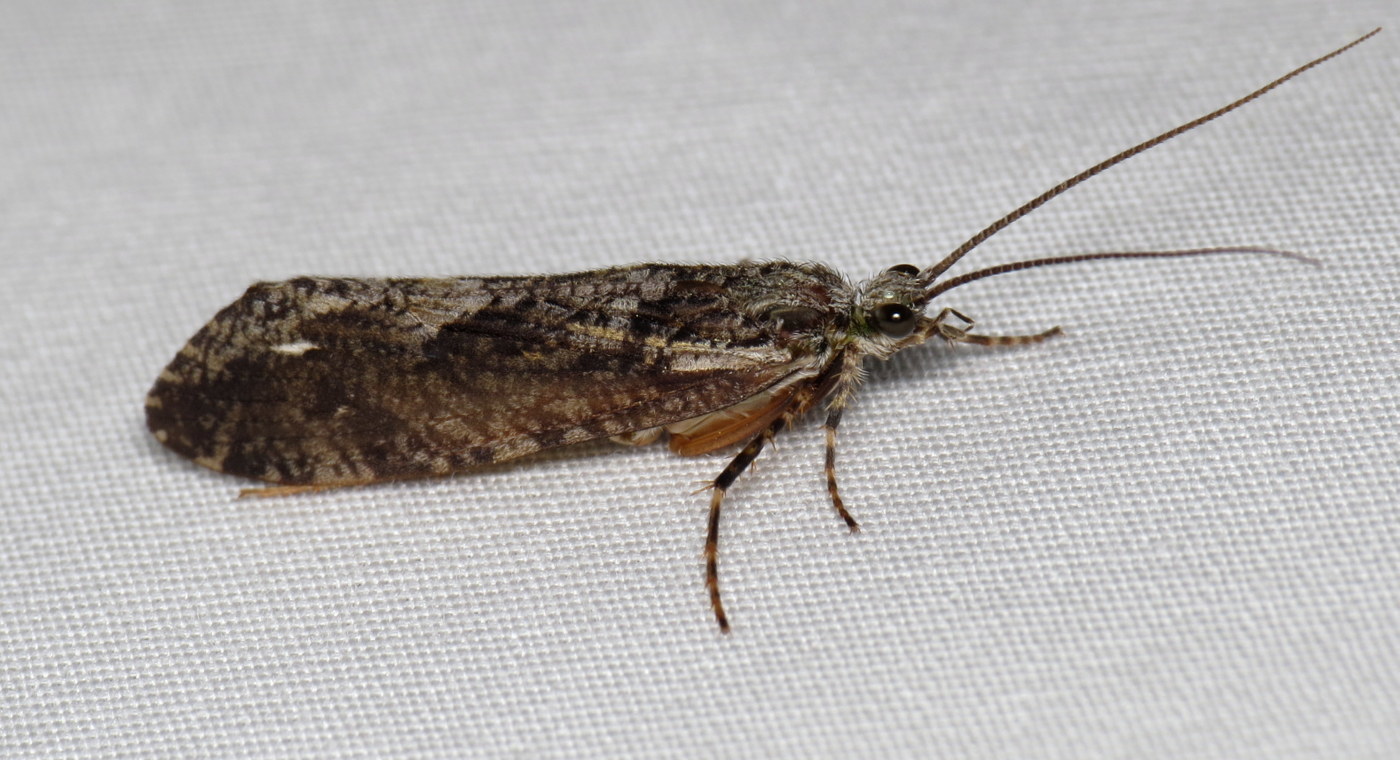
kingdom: Animalia
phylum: Arthropoda
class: Insecta
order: Trichoptera
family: Phryganeidae
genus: Agrypnia
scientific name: Agrypnia vestita
